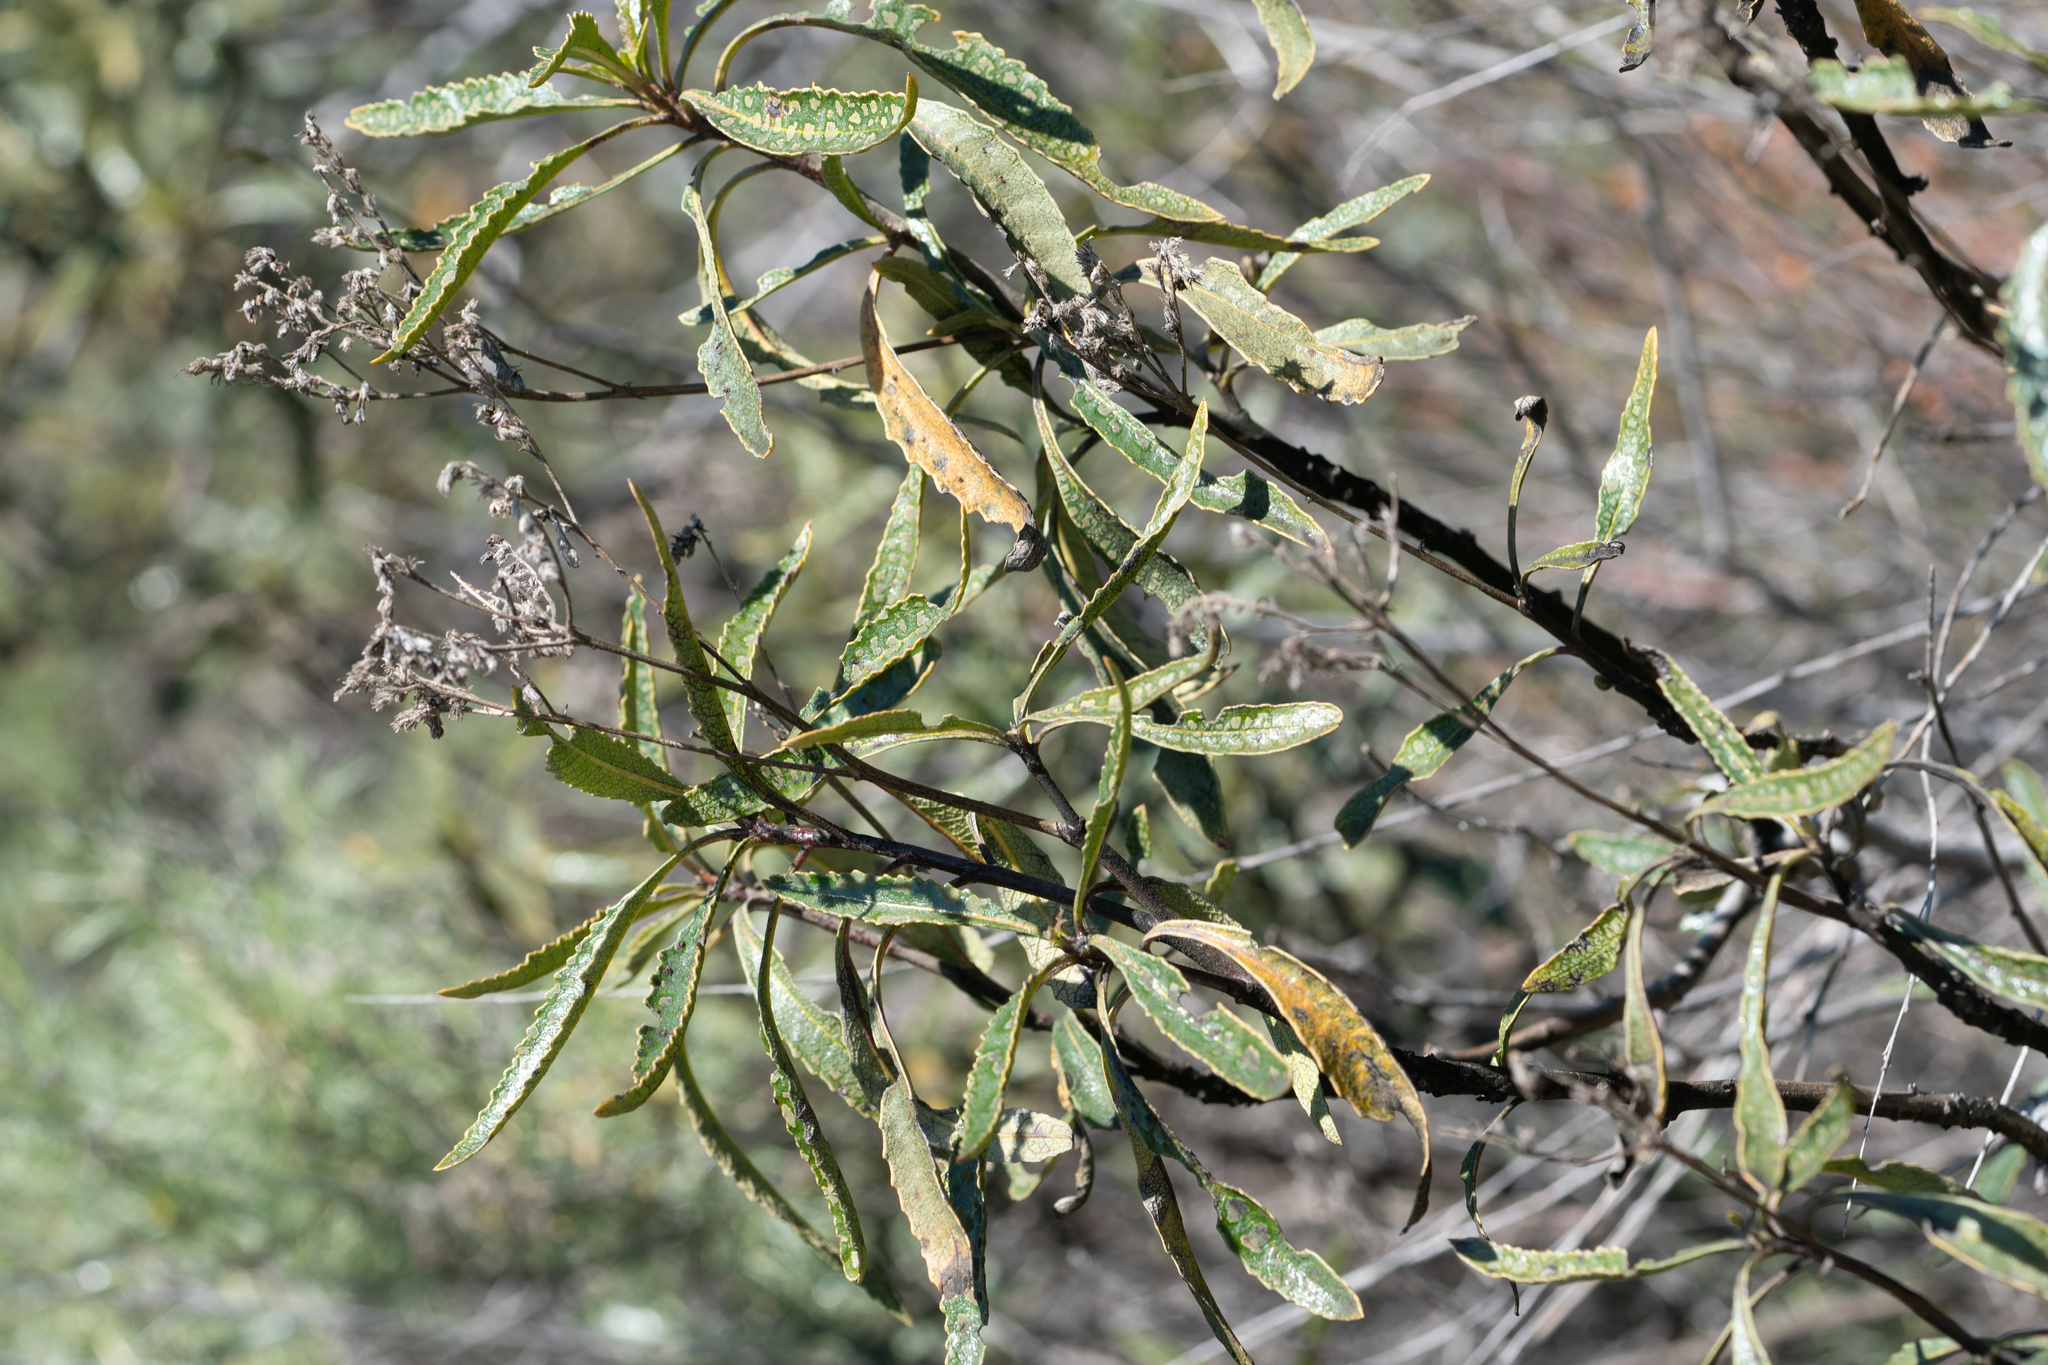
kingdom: Plantae
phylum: Tracheophyta
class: Magnoliopsida
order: Boraginales
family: Namaceae
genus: Eriodictyon
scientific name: Eriodictyon trichocalyx
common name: Hairy yerba-santa
